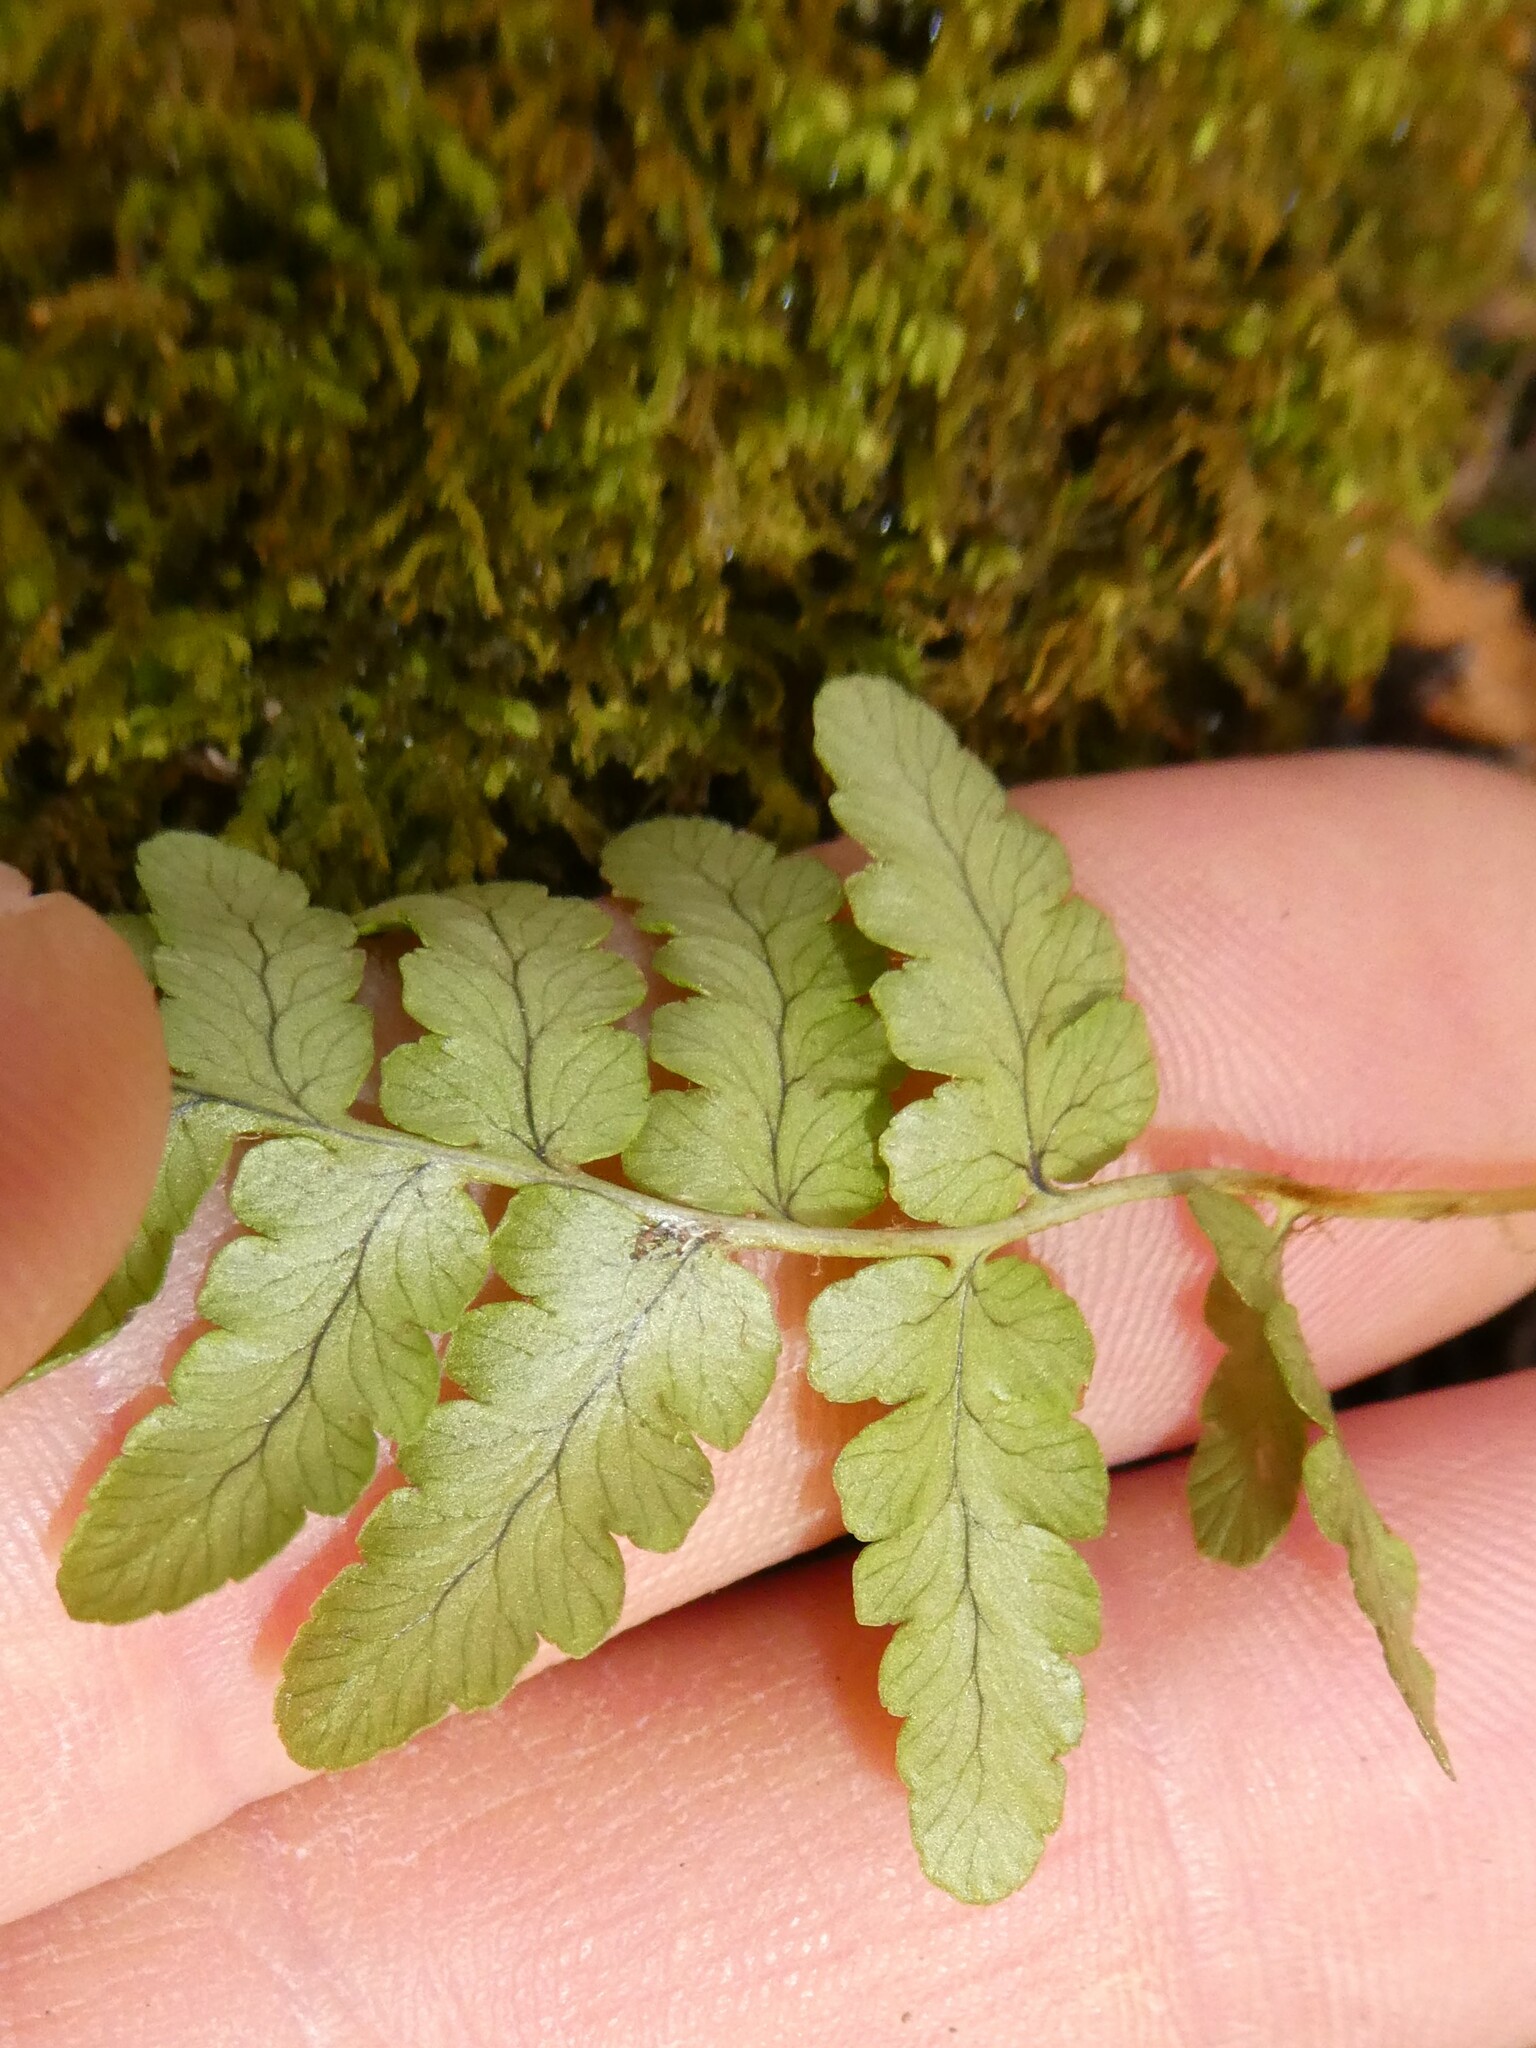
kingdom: Plantae
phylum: Tracheophyta
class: Polypodiopsida
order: Polypodiales
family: Dryopteridaceae
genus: Dryopteris
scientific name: Dryopteris cristata
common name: Crested wood fern
